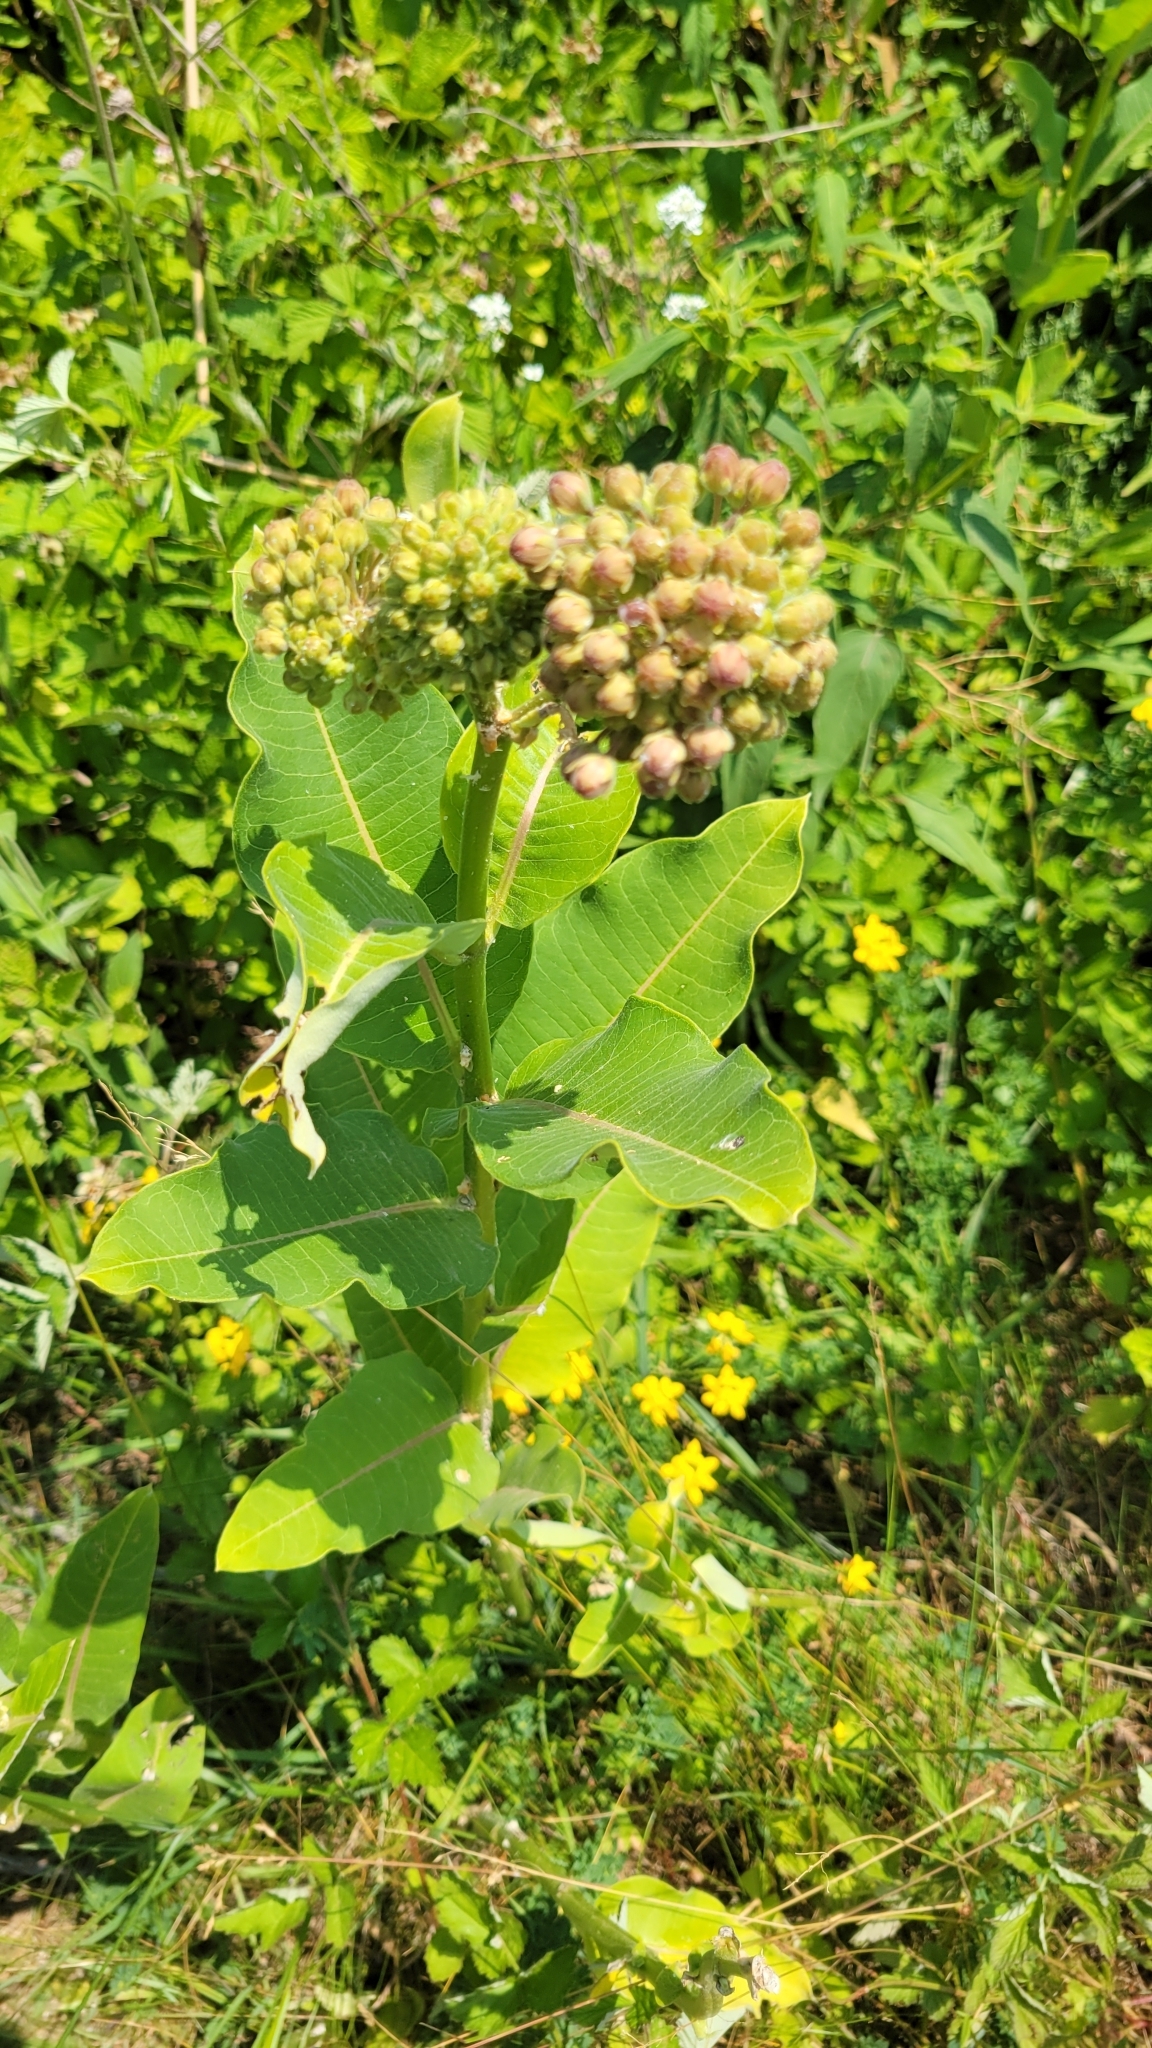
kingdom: Plantae
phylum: Tracheophyta
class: Magnoliopsida
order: Gentianales
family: Apocynaceae
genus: Asclepias
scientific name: Asclepias syriaca
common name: Common milkweed
